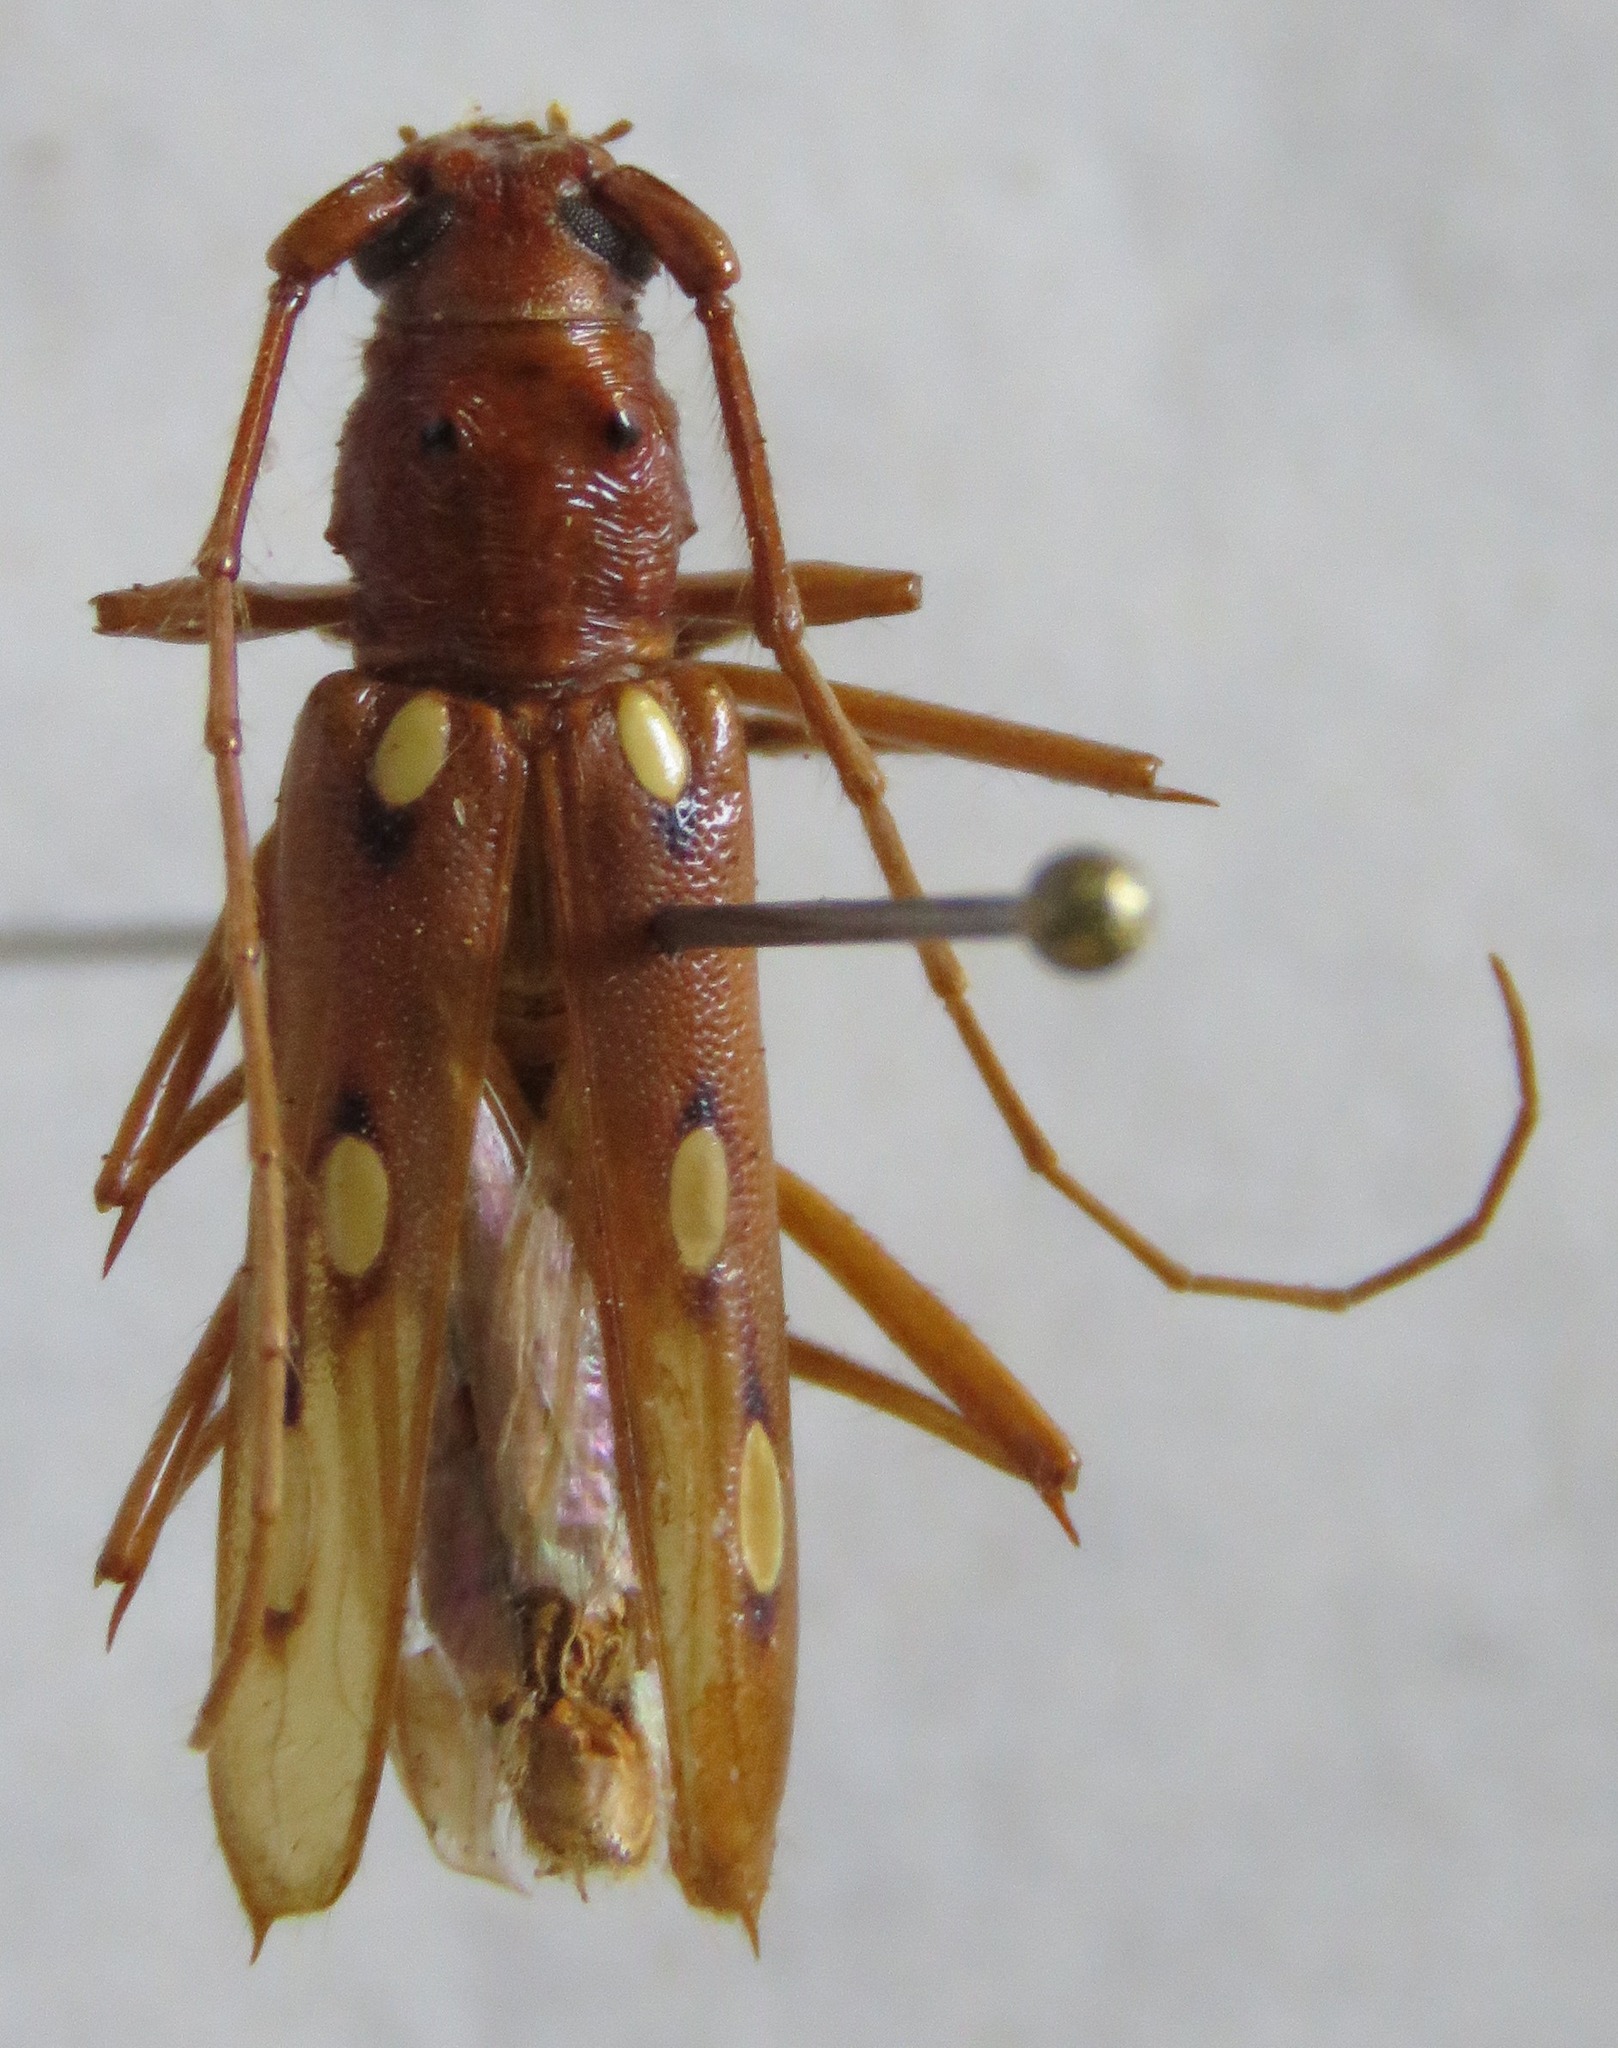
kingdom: Animalia
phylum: Arthropoda
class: Insecta
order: Coleoptera
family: Cerambycidae
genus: Eburodacrys
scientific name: Eburodacrys triocellata
